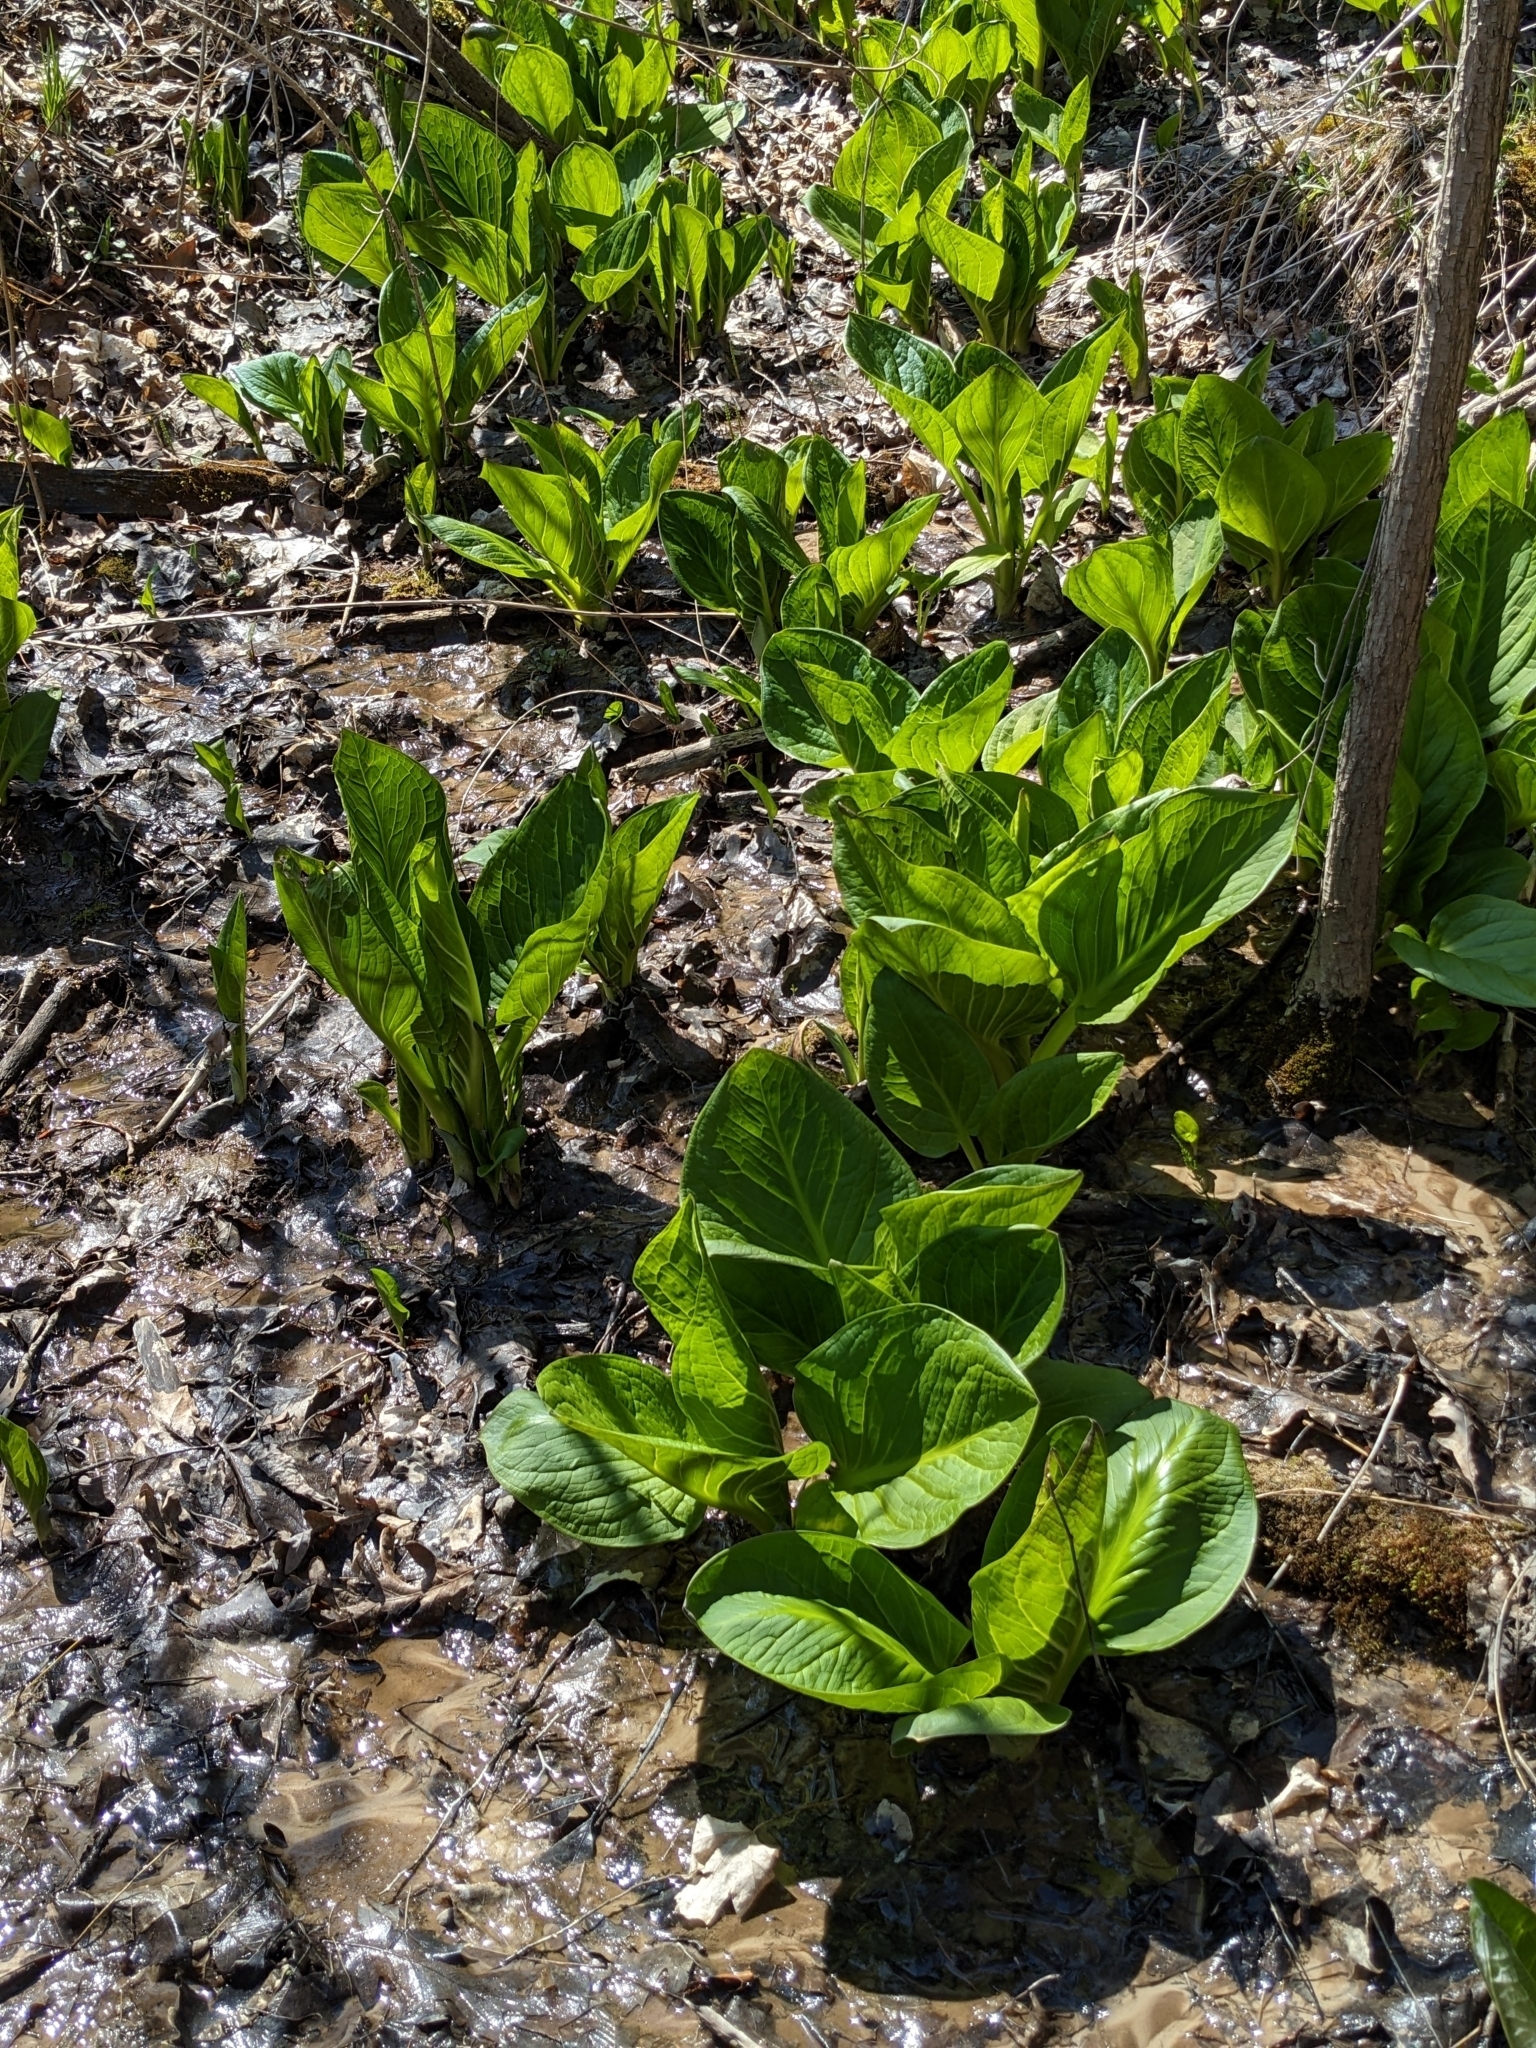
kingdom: Plantae
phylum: Tracheophyta
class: Liliopsida
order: Alismatales
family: Araceae
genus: Symplocarpus
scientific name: Symplocarpus foetidus
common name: Eastern skunk cabbage
